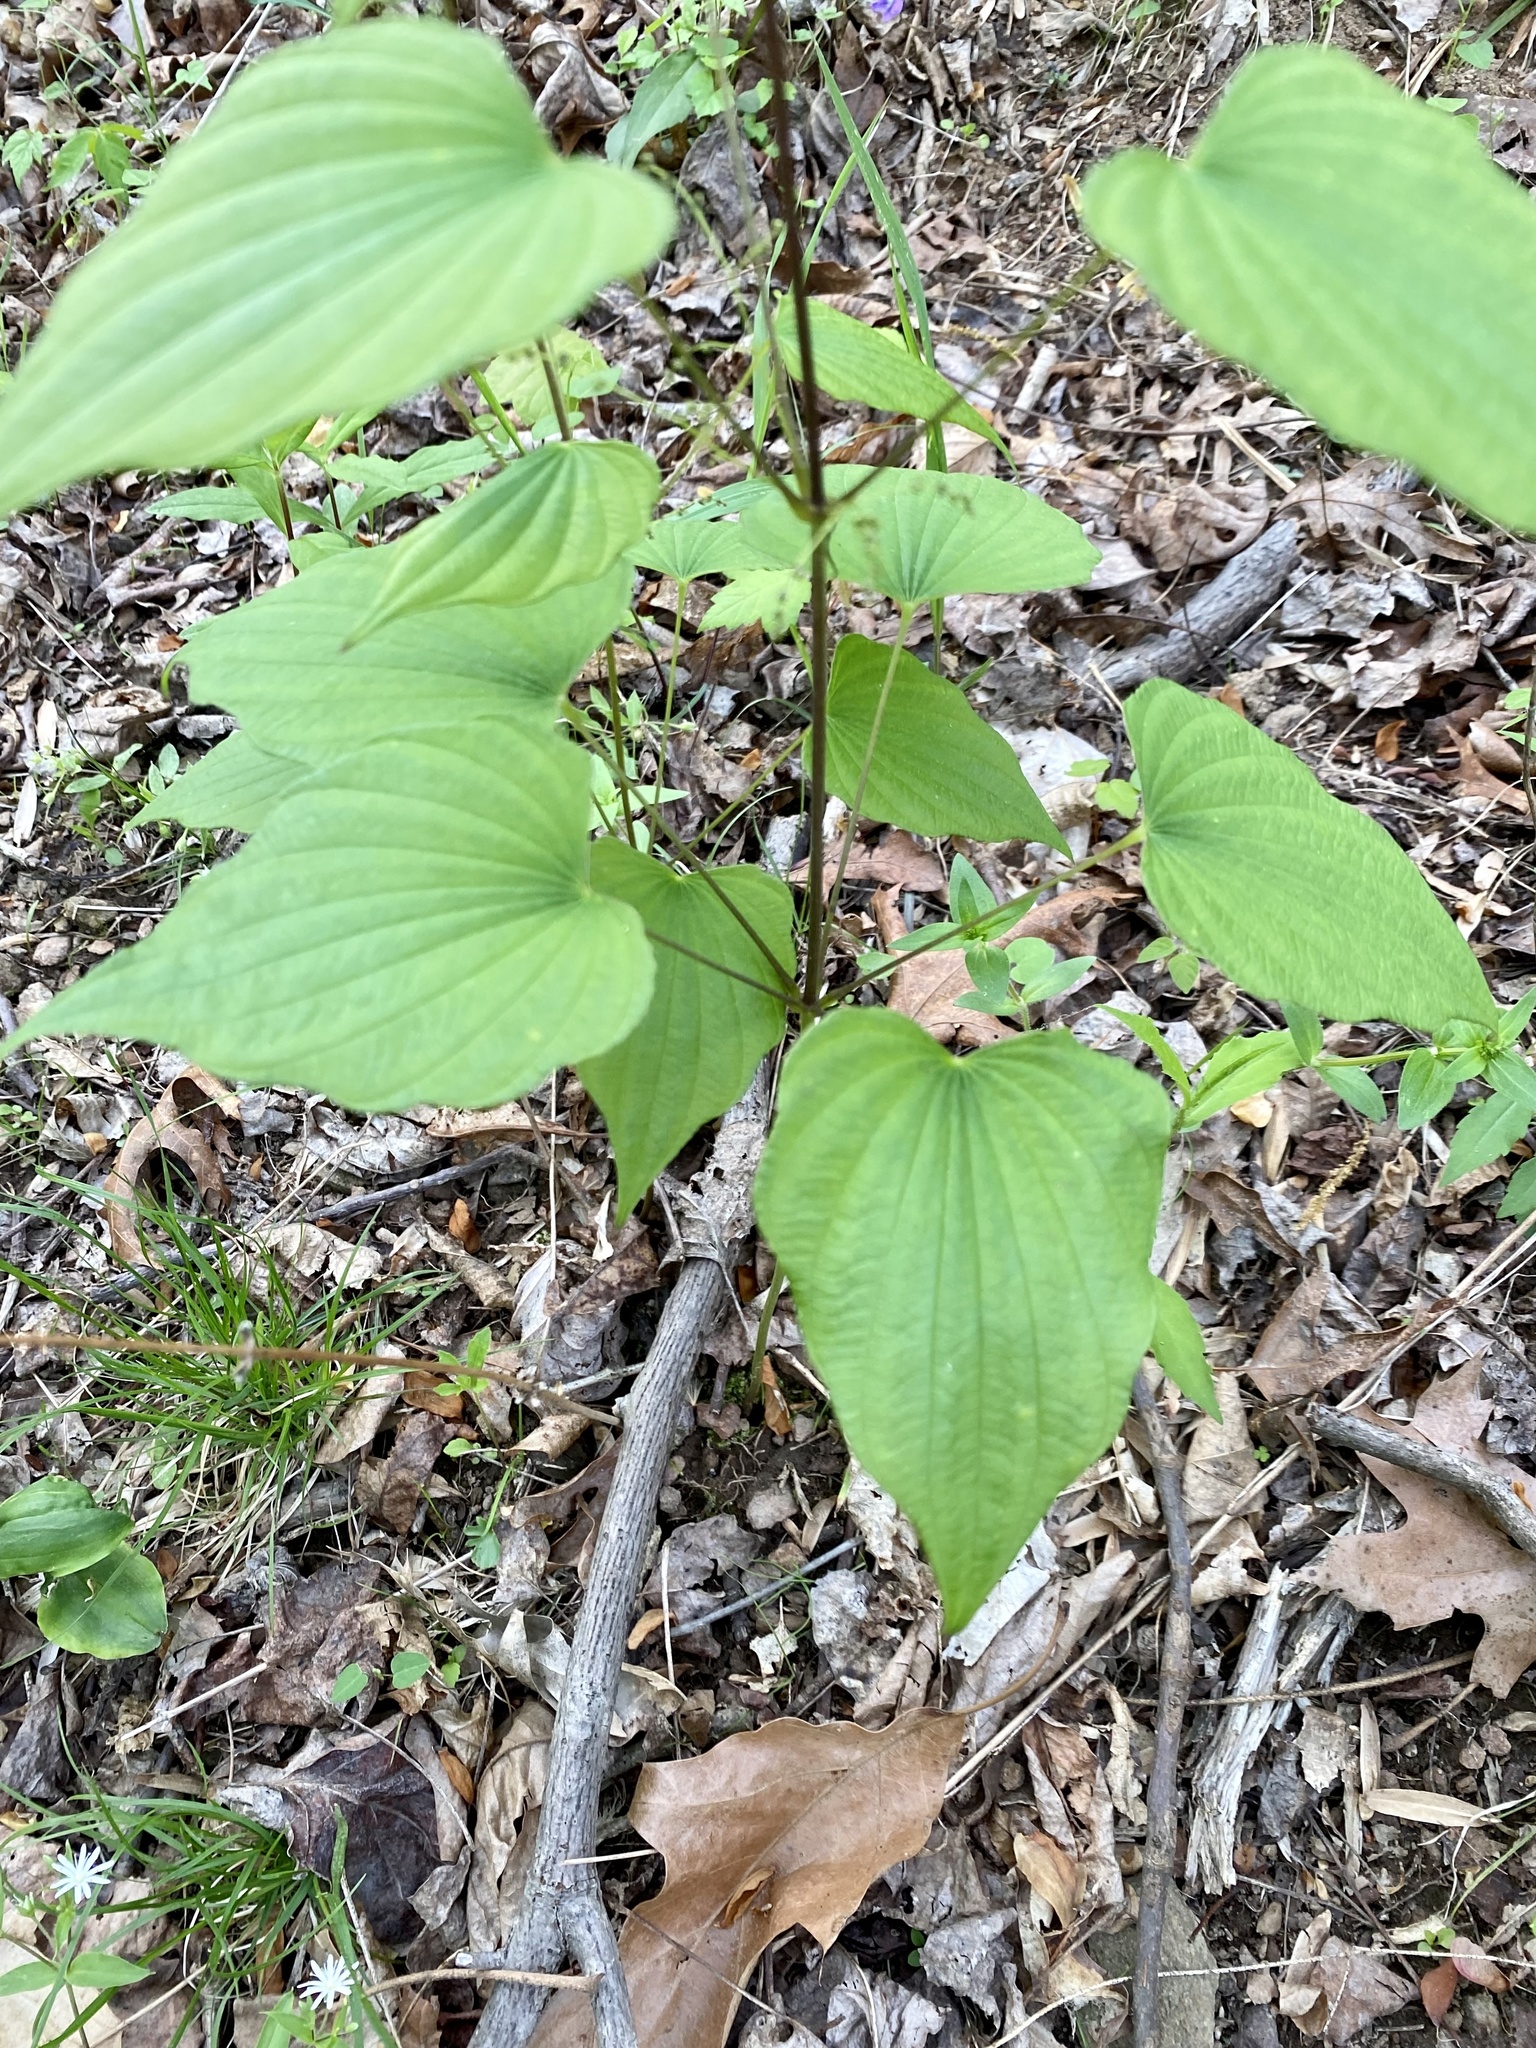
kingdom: Plantae
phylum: Tracheophyta
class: Liliopsida
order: Dioscoreales
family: Dioscoreaceae
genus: Dioscorea
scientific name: Dioscorea villosa
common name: Wild yam
